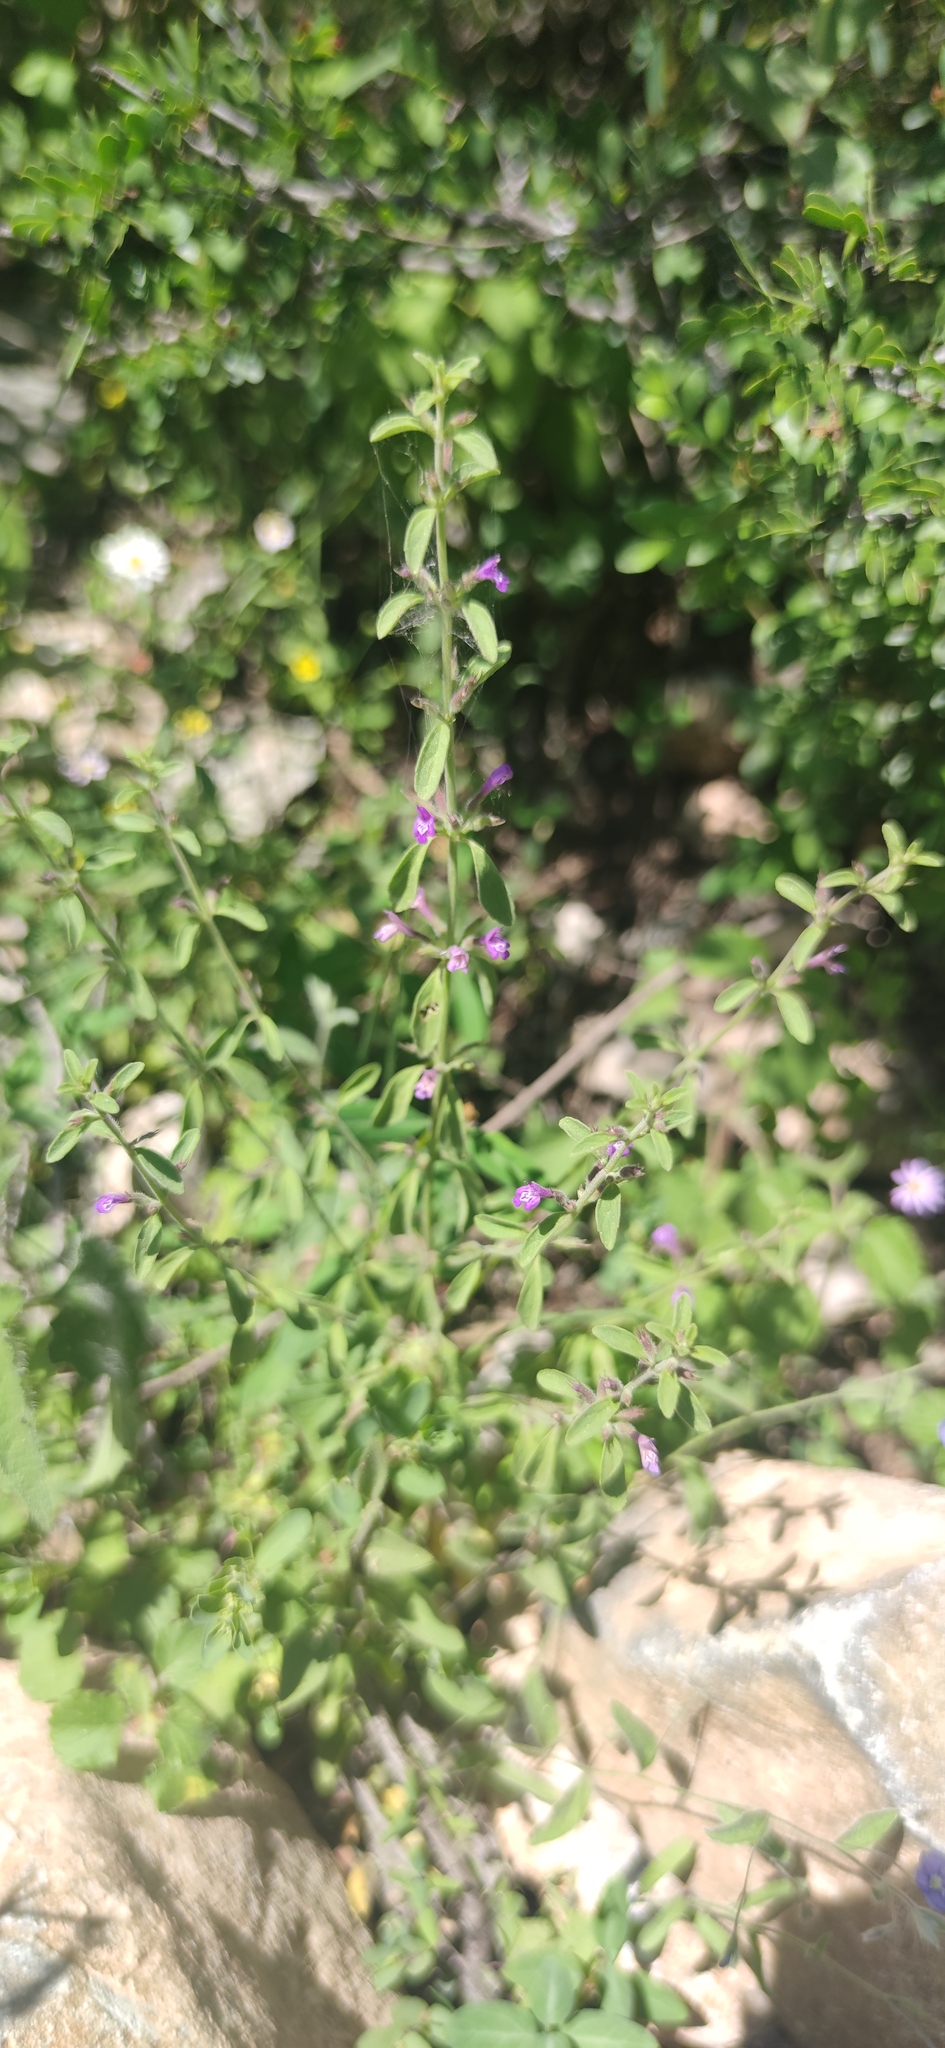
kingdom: Plantae
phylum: Tracheophyta
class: Magnoliopsida
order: Lamiales
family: Lamiaceae
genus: Hedeoma
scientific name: Hedeoma drummondii
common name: New mexico pennyroyal
